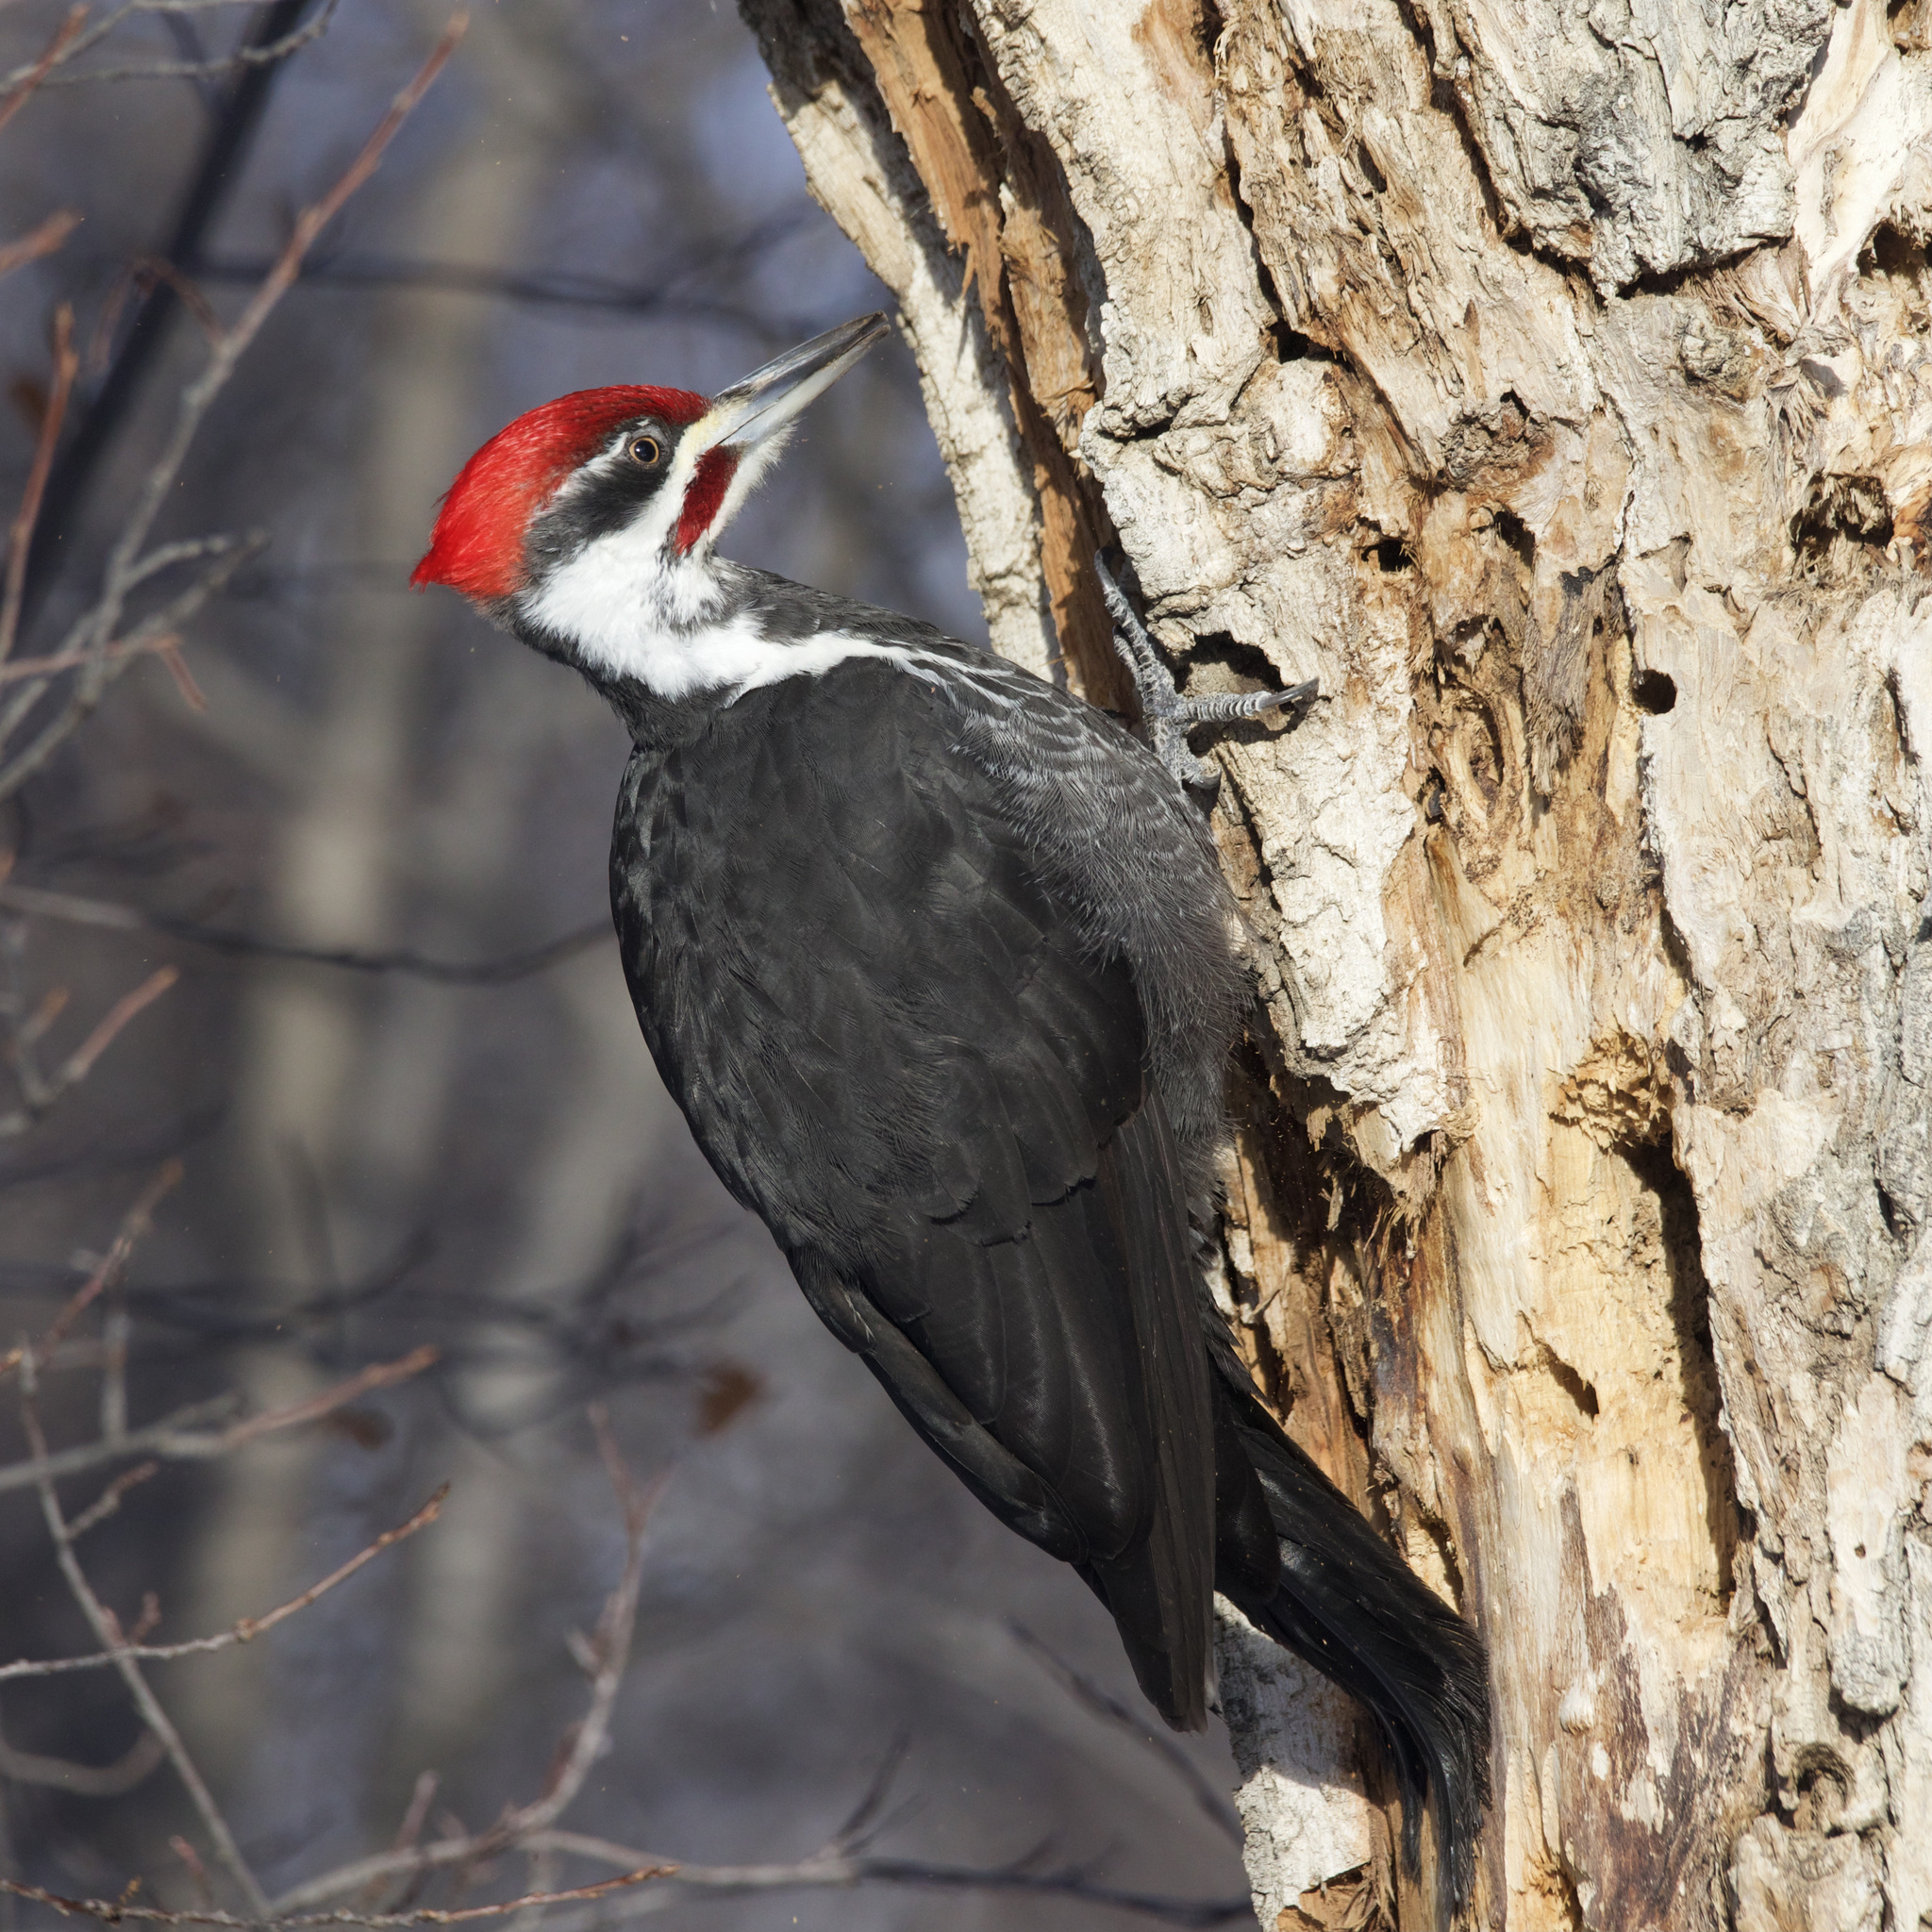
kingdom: Animalia
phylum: Chordata
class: Aves
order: Piciformes
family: Picidae
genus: Dryocopus
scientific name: Dryocopus pileatus
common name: Pileated woodpecker
